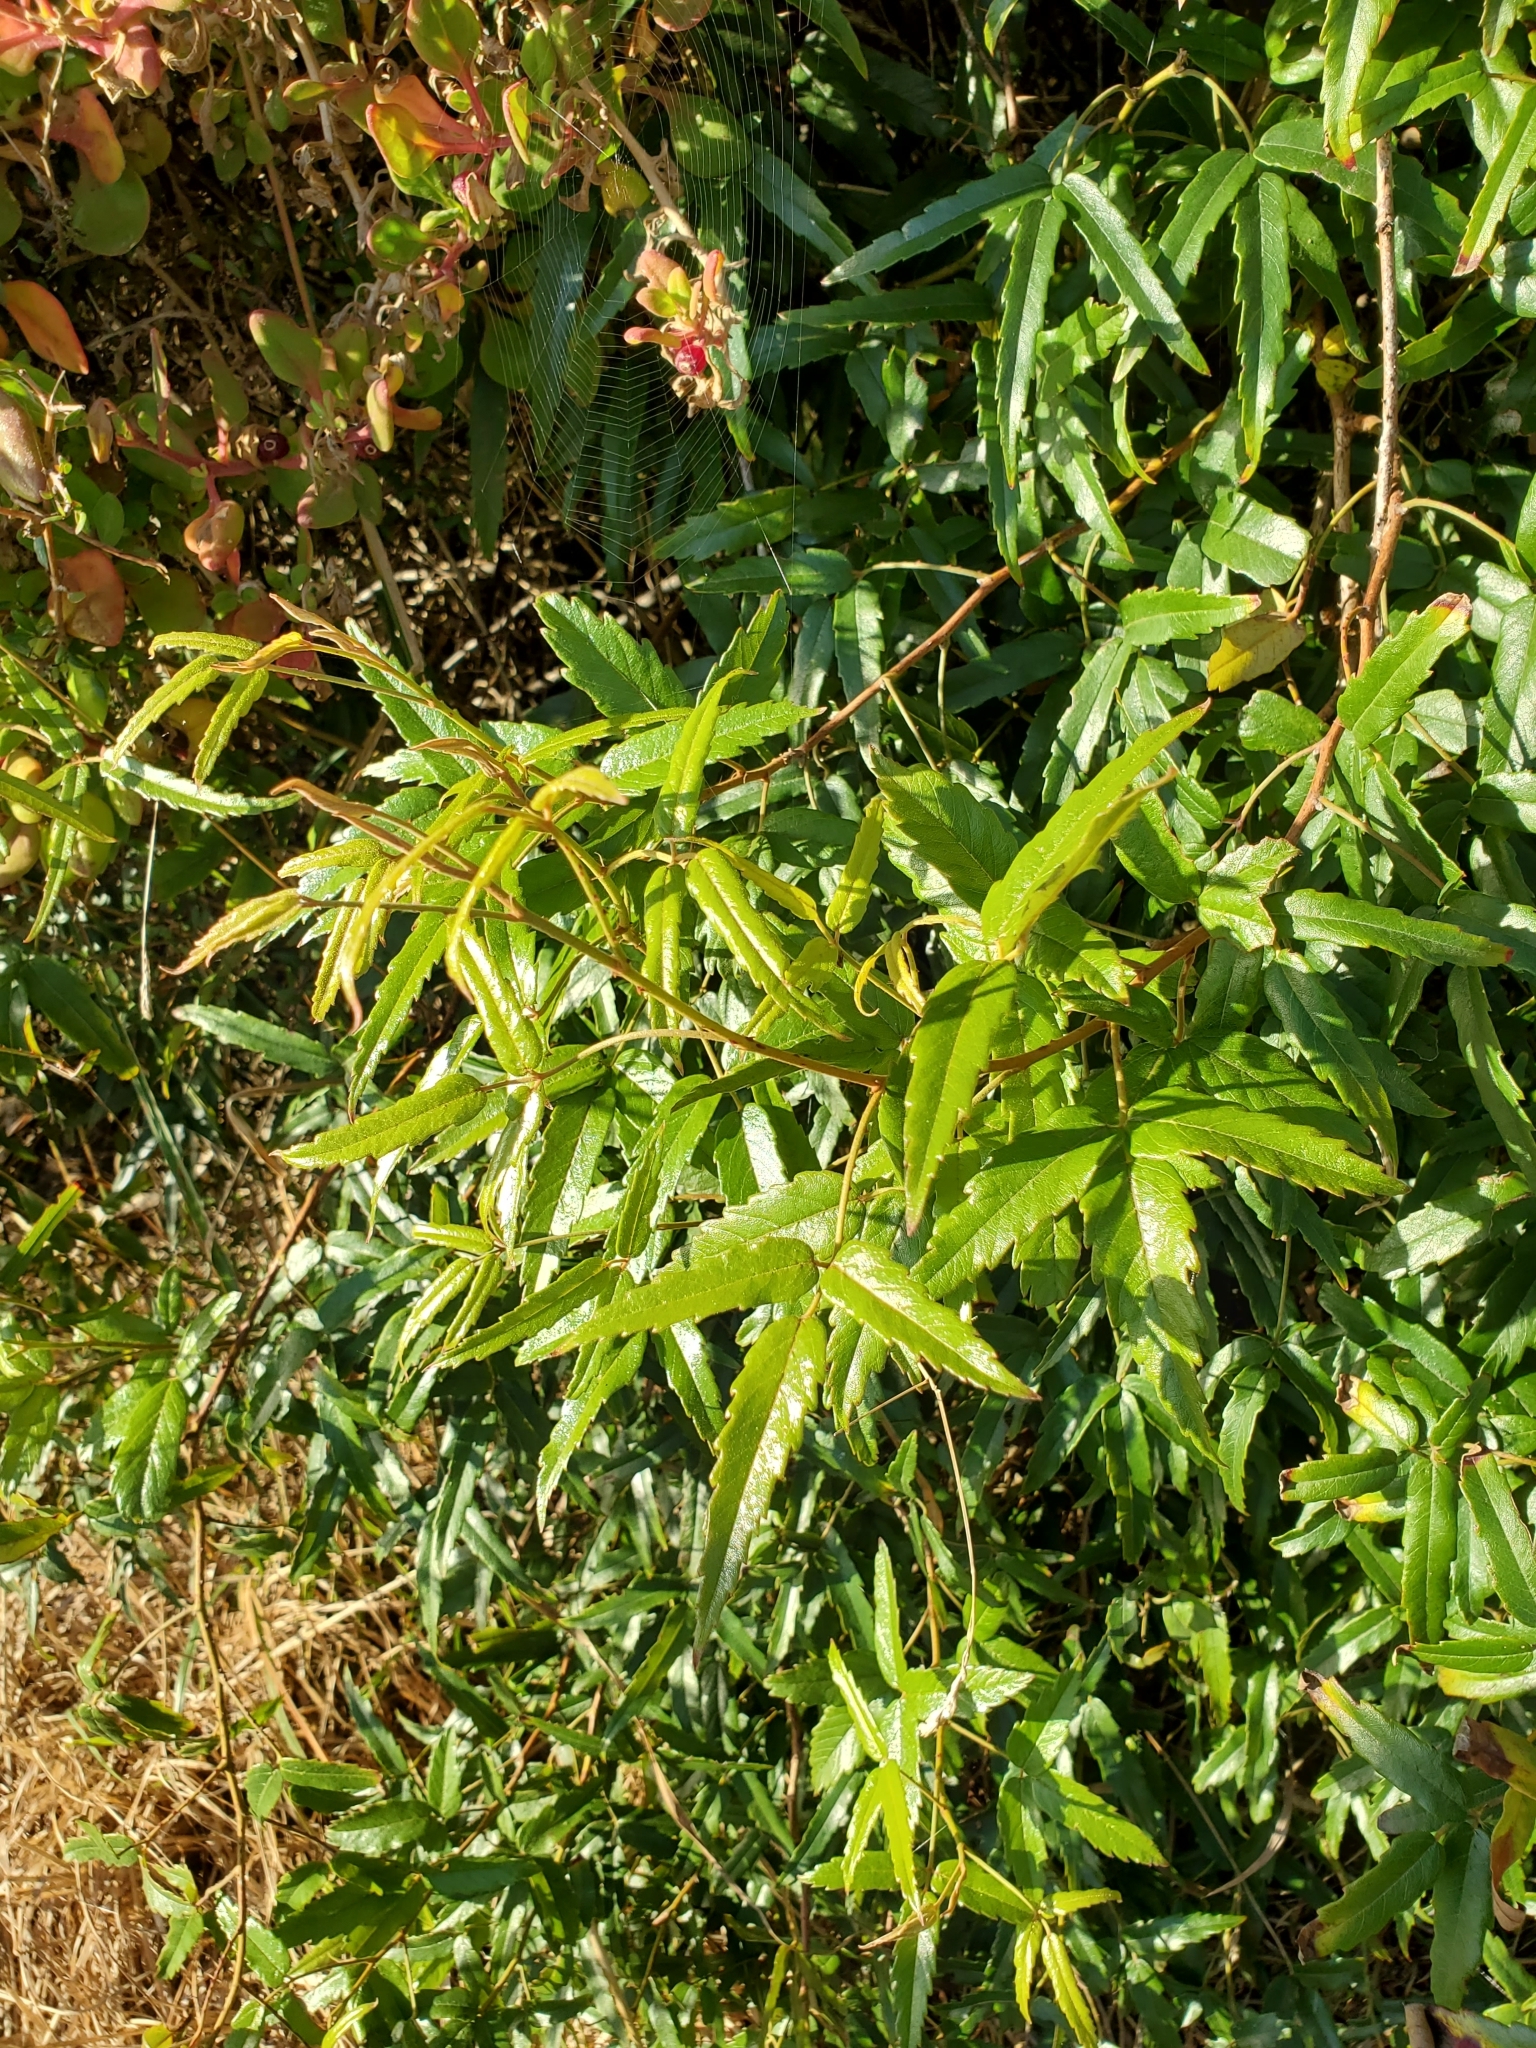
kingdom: Plantae
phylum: Tracheophyta
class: Magnoliopsida
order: Rosales
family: Rosaceae
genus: Rubus
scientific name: Rubus schmidelioides
